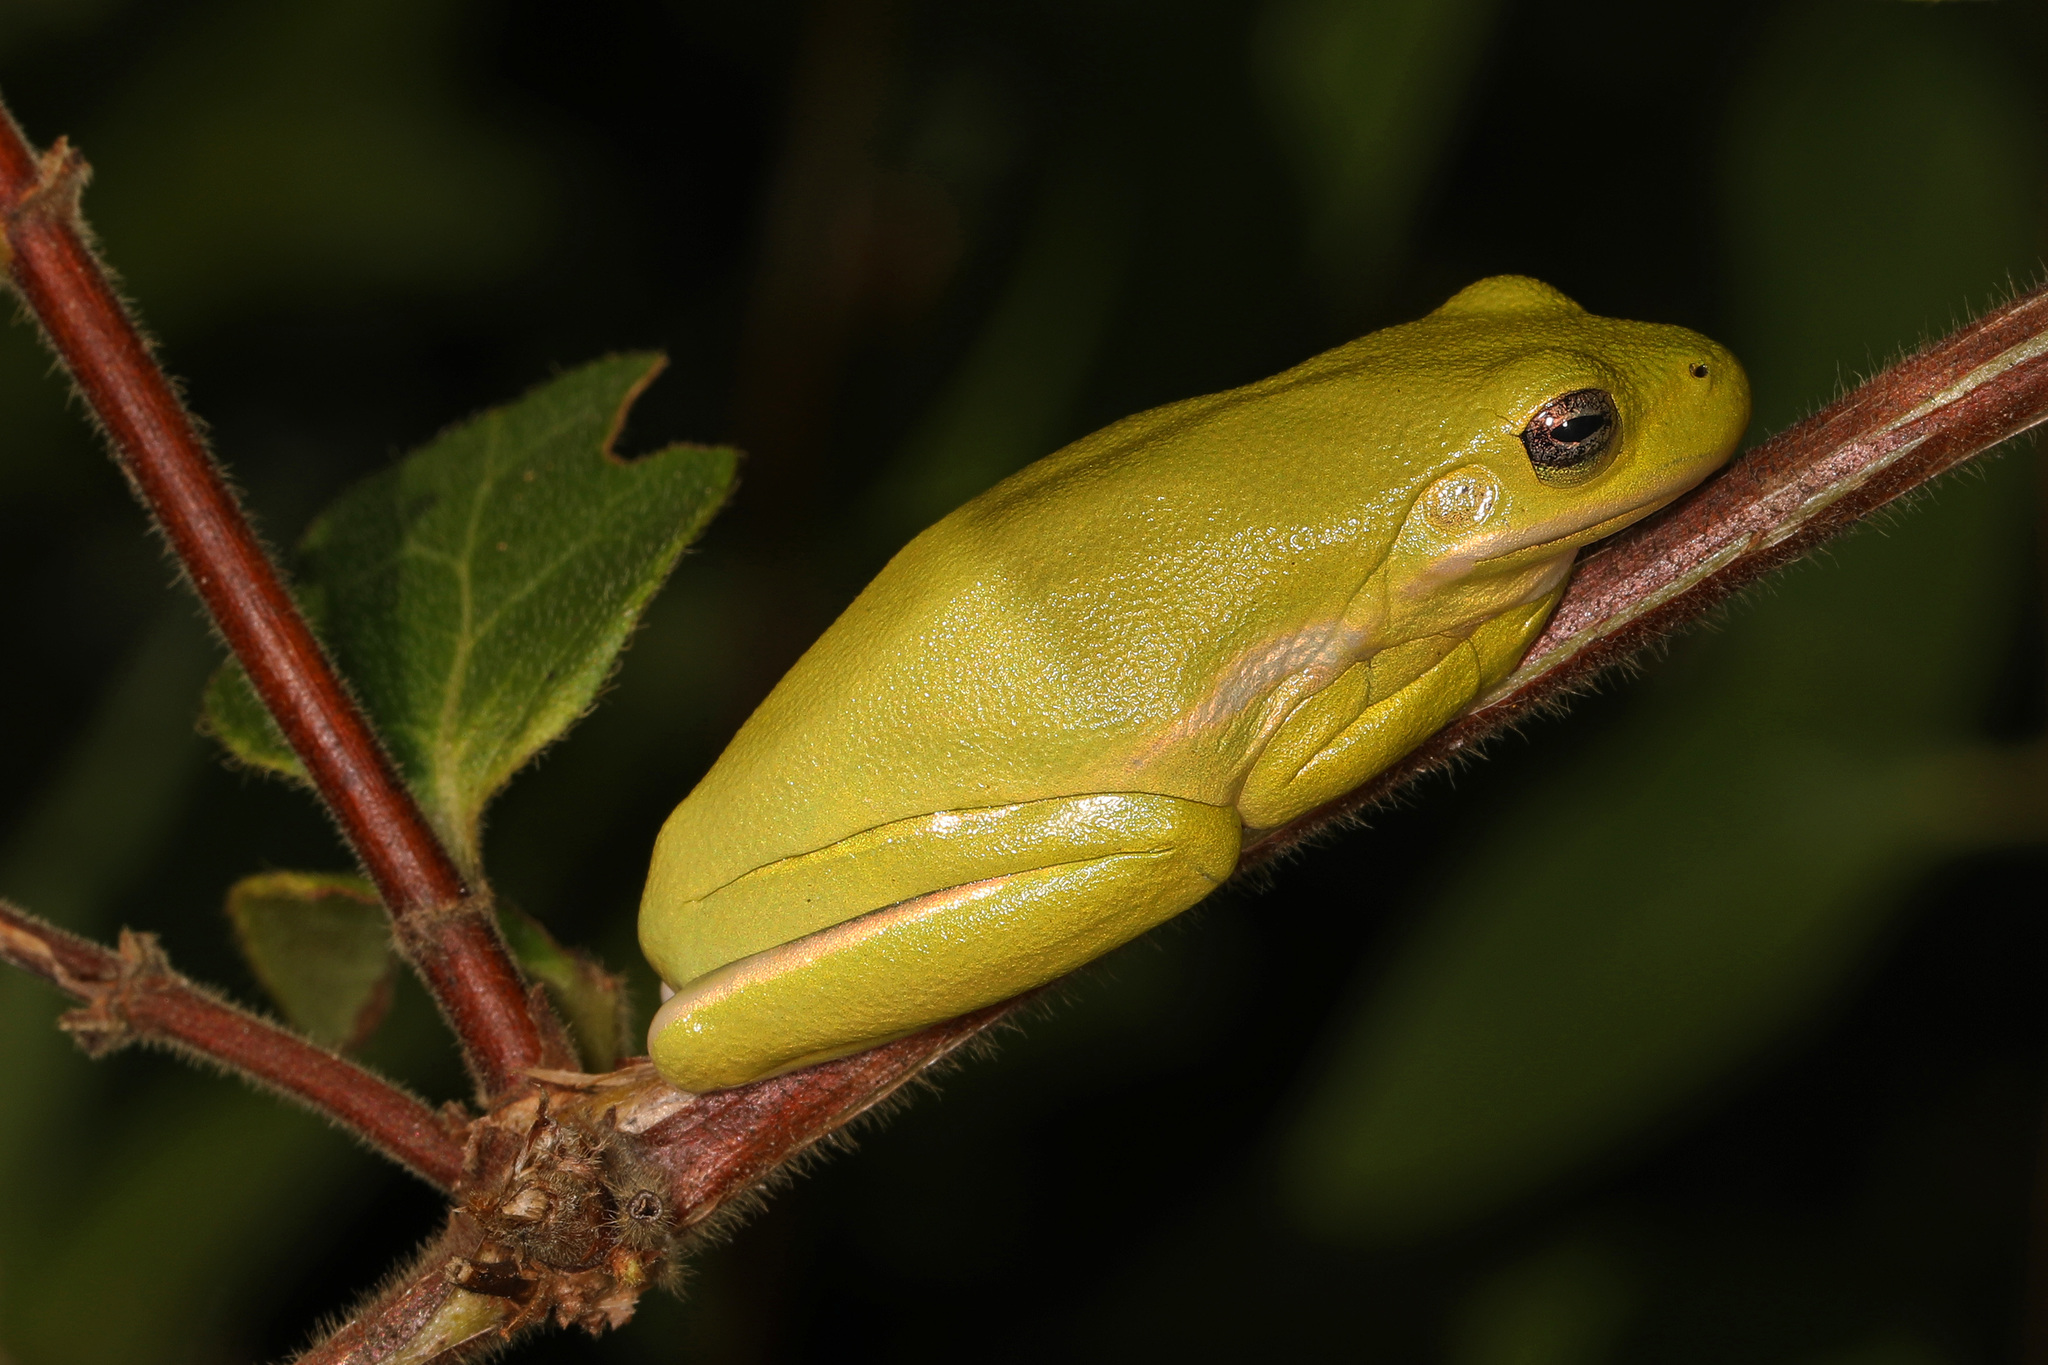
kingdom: Animalia
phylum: Chordata
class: Amphibia
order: Anura
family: Hylidae
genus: Dryophytes
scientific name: Dryophytes cinereus
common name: Green treefrog
